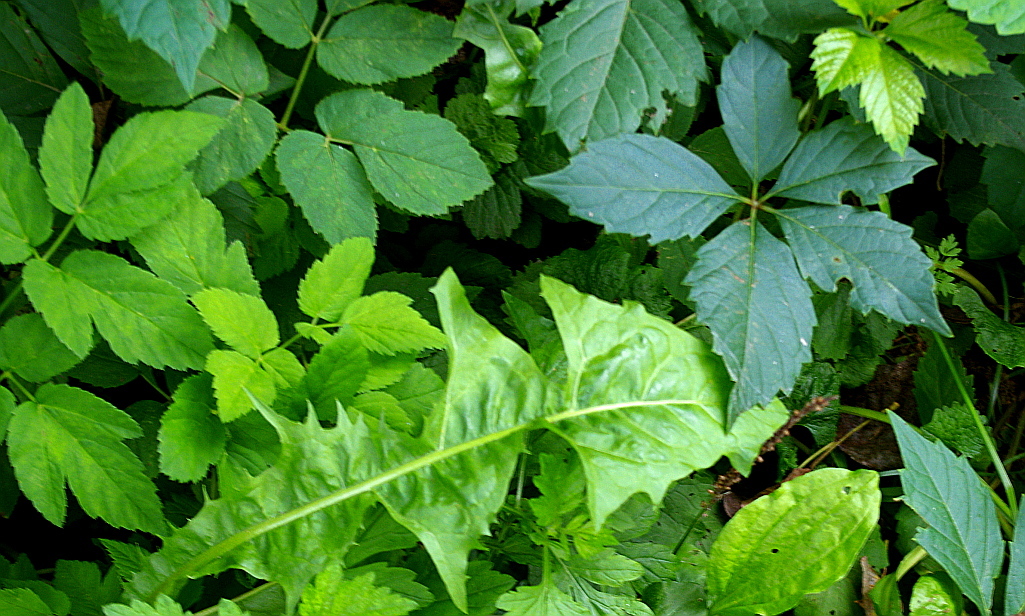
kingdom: Plantae
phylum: Tracheophyta
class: Magnoliopsida
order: Asterales
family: Asteraceae
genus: Taraxacum
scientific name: Taraxacum officinale
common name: Common dandelion
